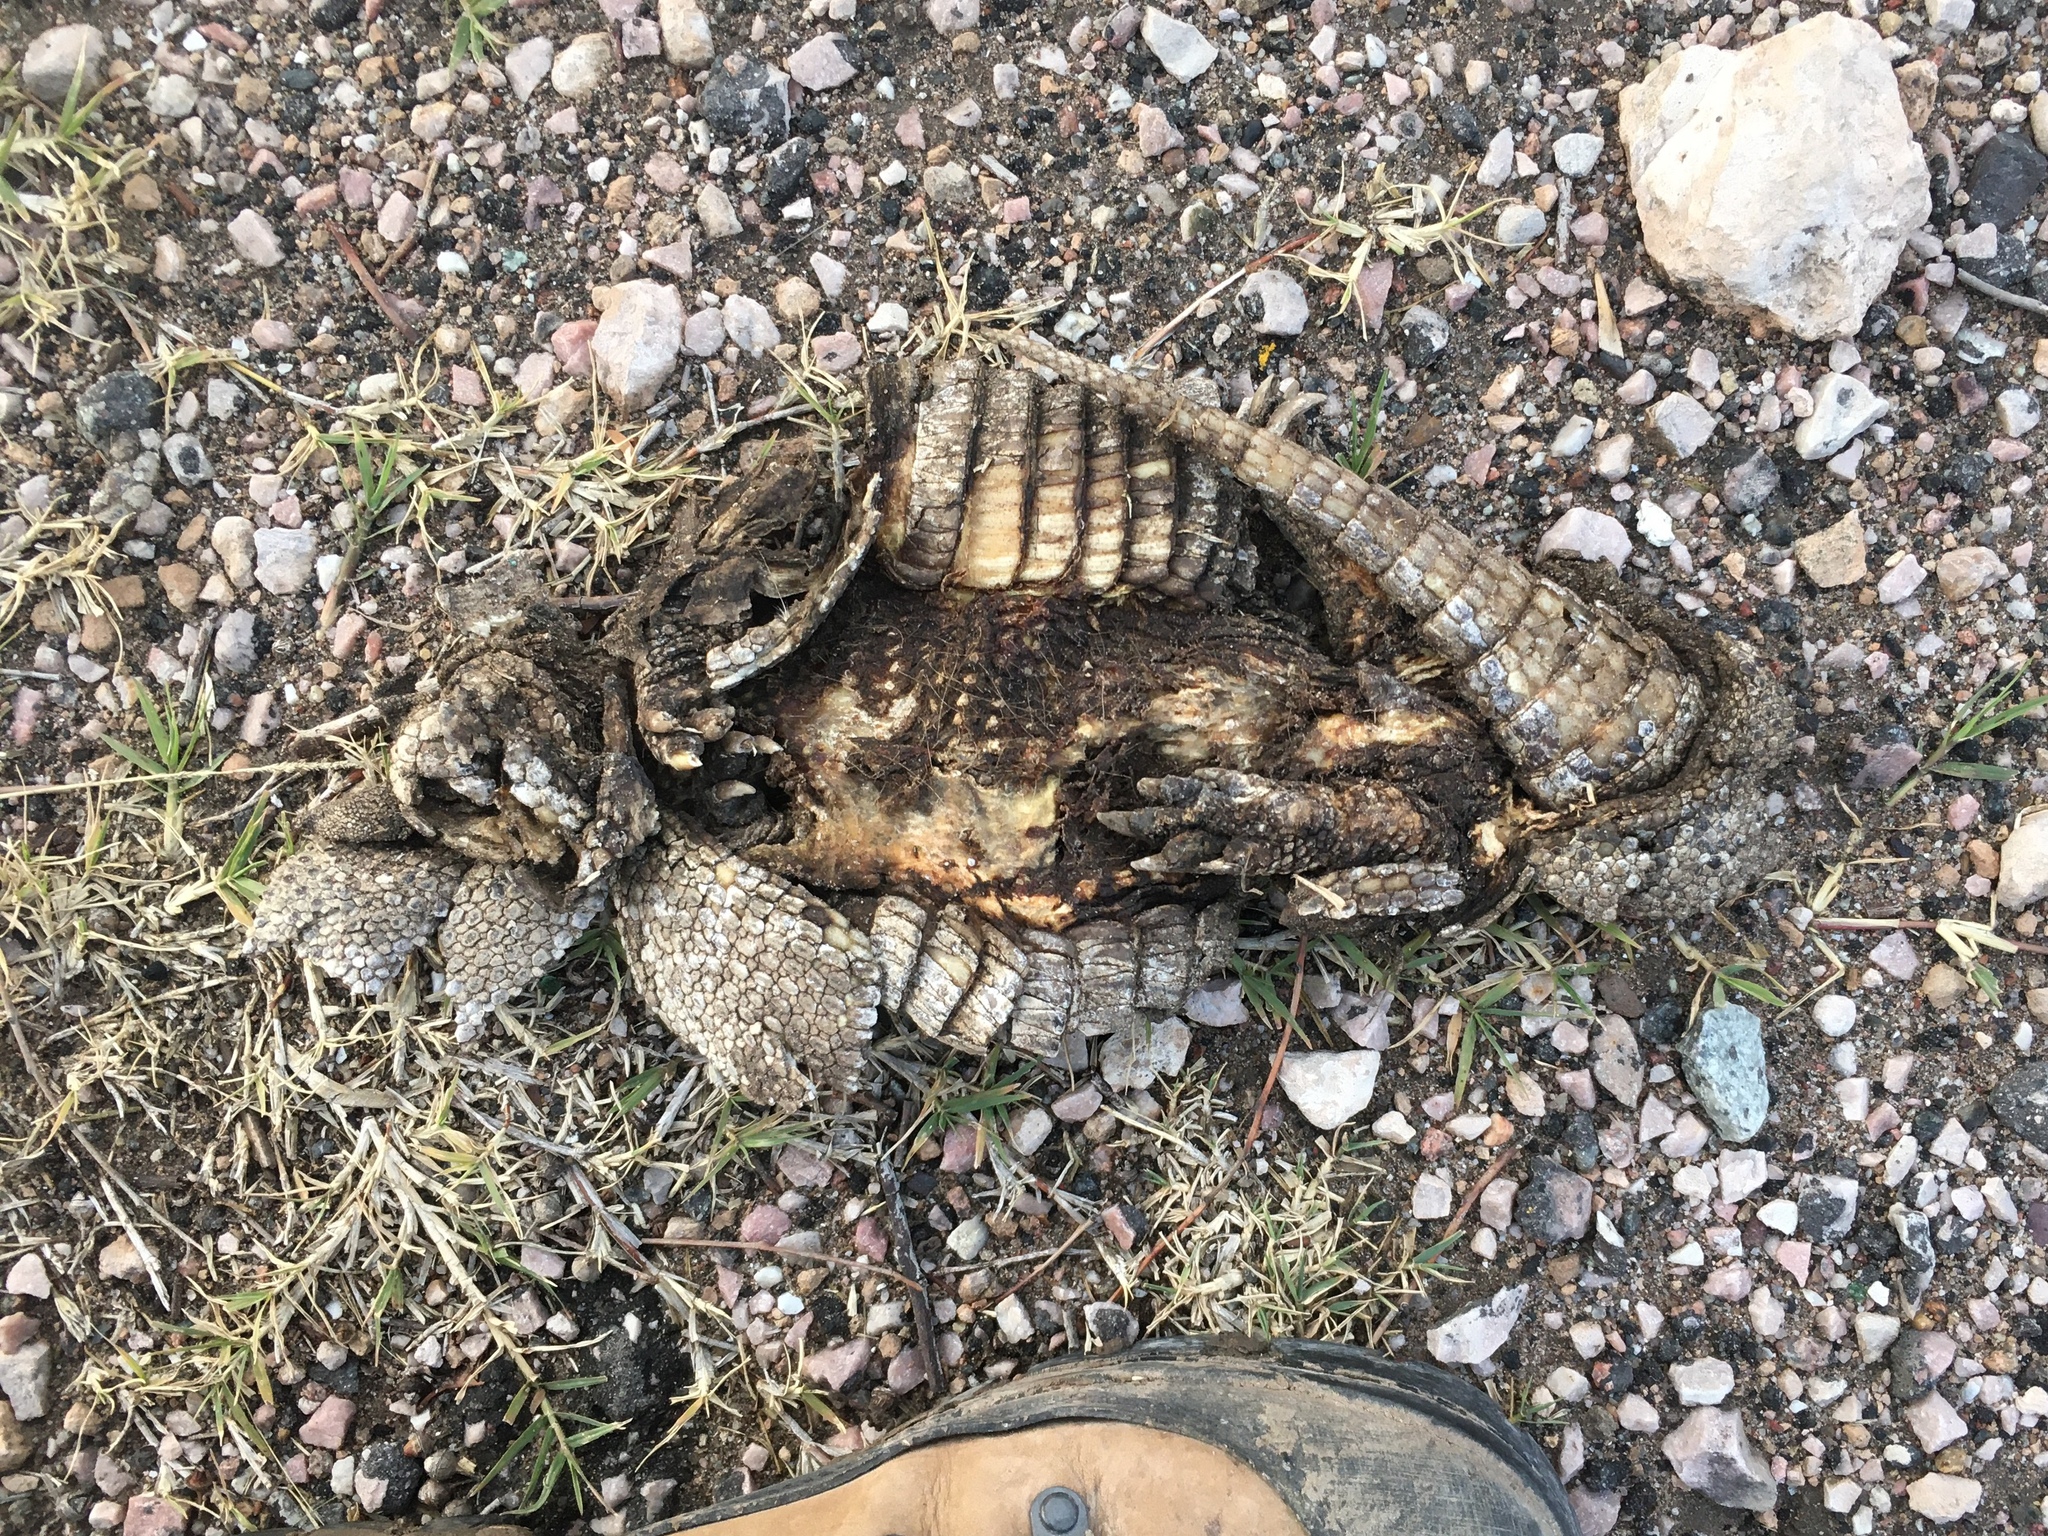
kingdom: Animalia
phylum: Chordata
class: Mammalia
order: Cingulata
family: Dasypodidae
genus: Dasypus
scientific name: Dasypus septemcinctus
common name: Seven-banded armadillo
